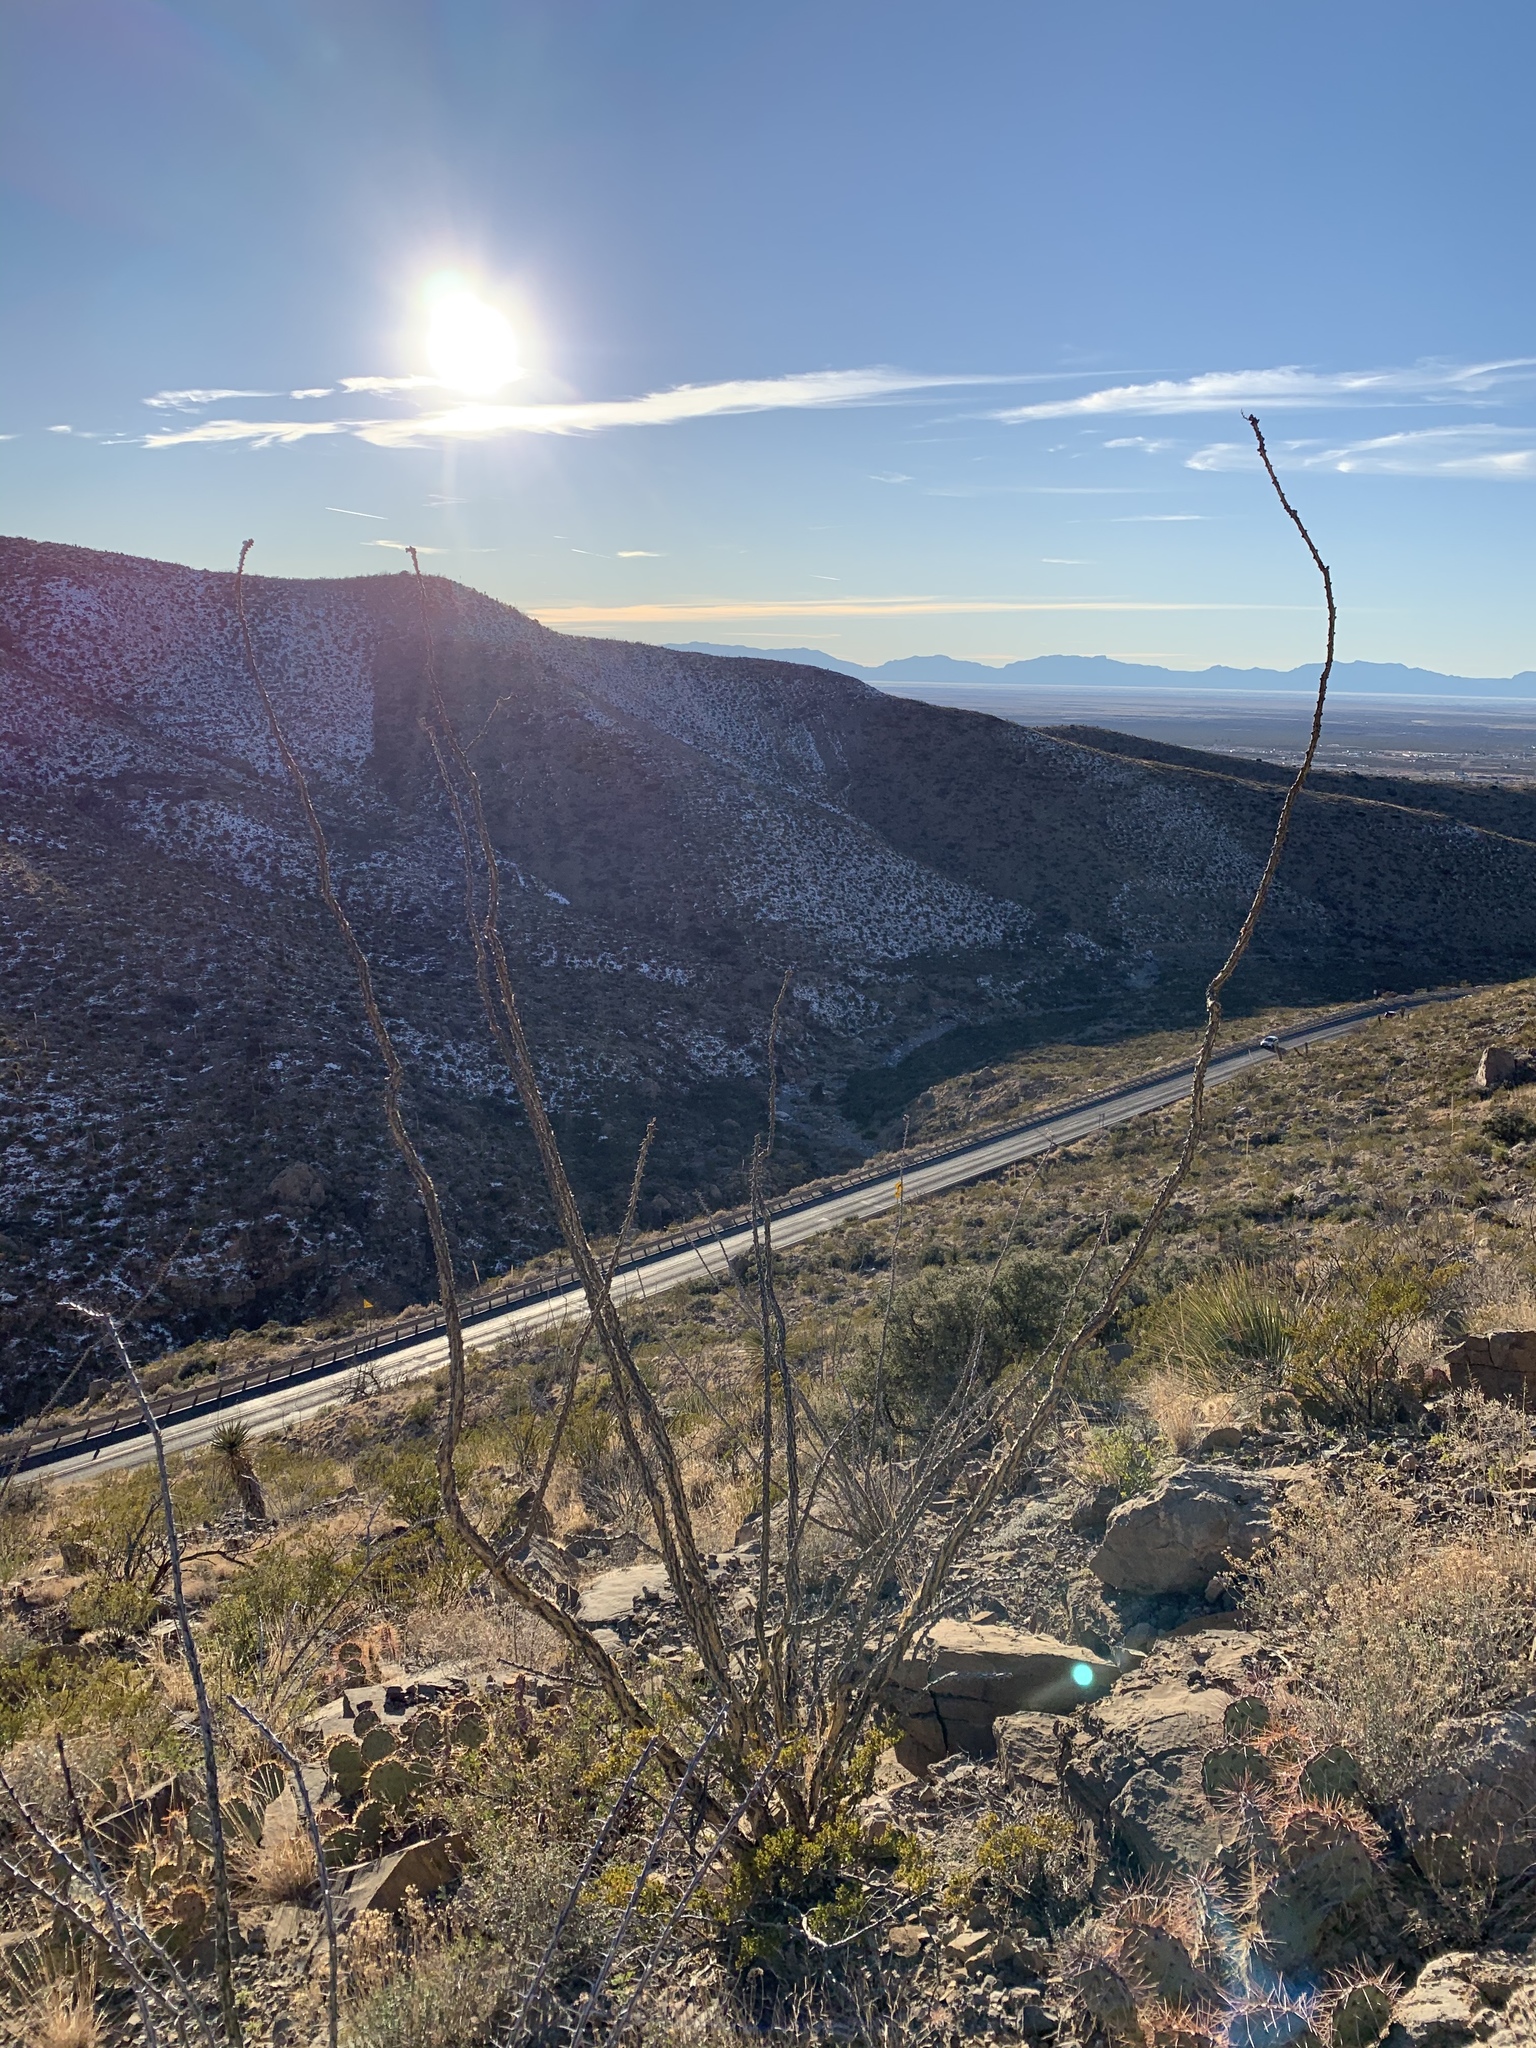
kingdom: Plantae
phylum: Tracheophyta
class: Magnoliopsida
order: Ericales
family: Fouquieriaceae
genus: Fouquieria
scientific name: Fouquieria splendens
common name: Vine-cactus
